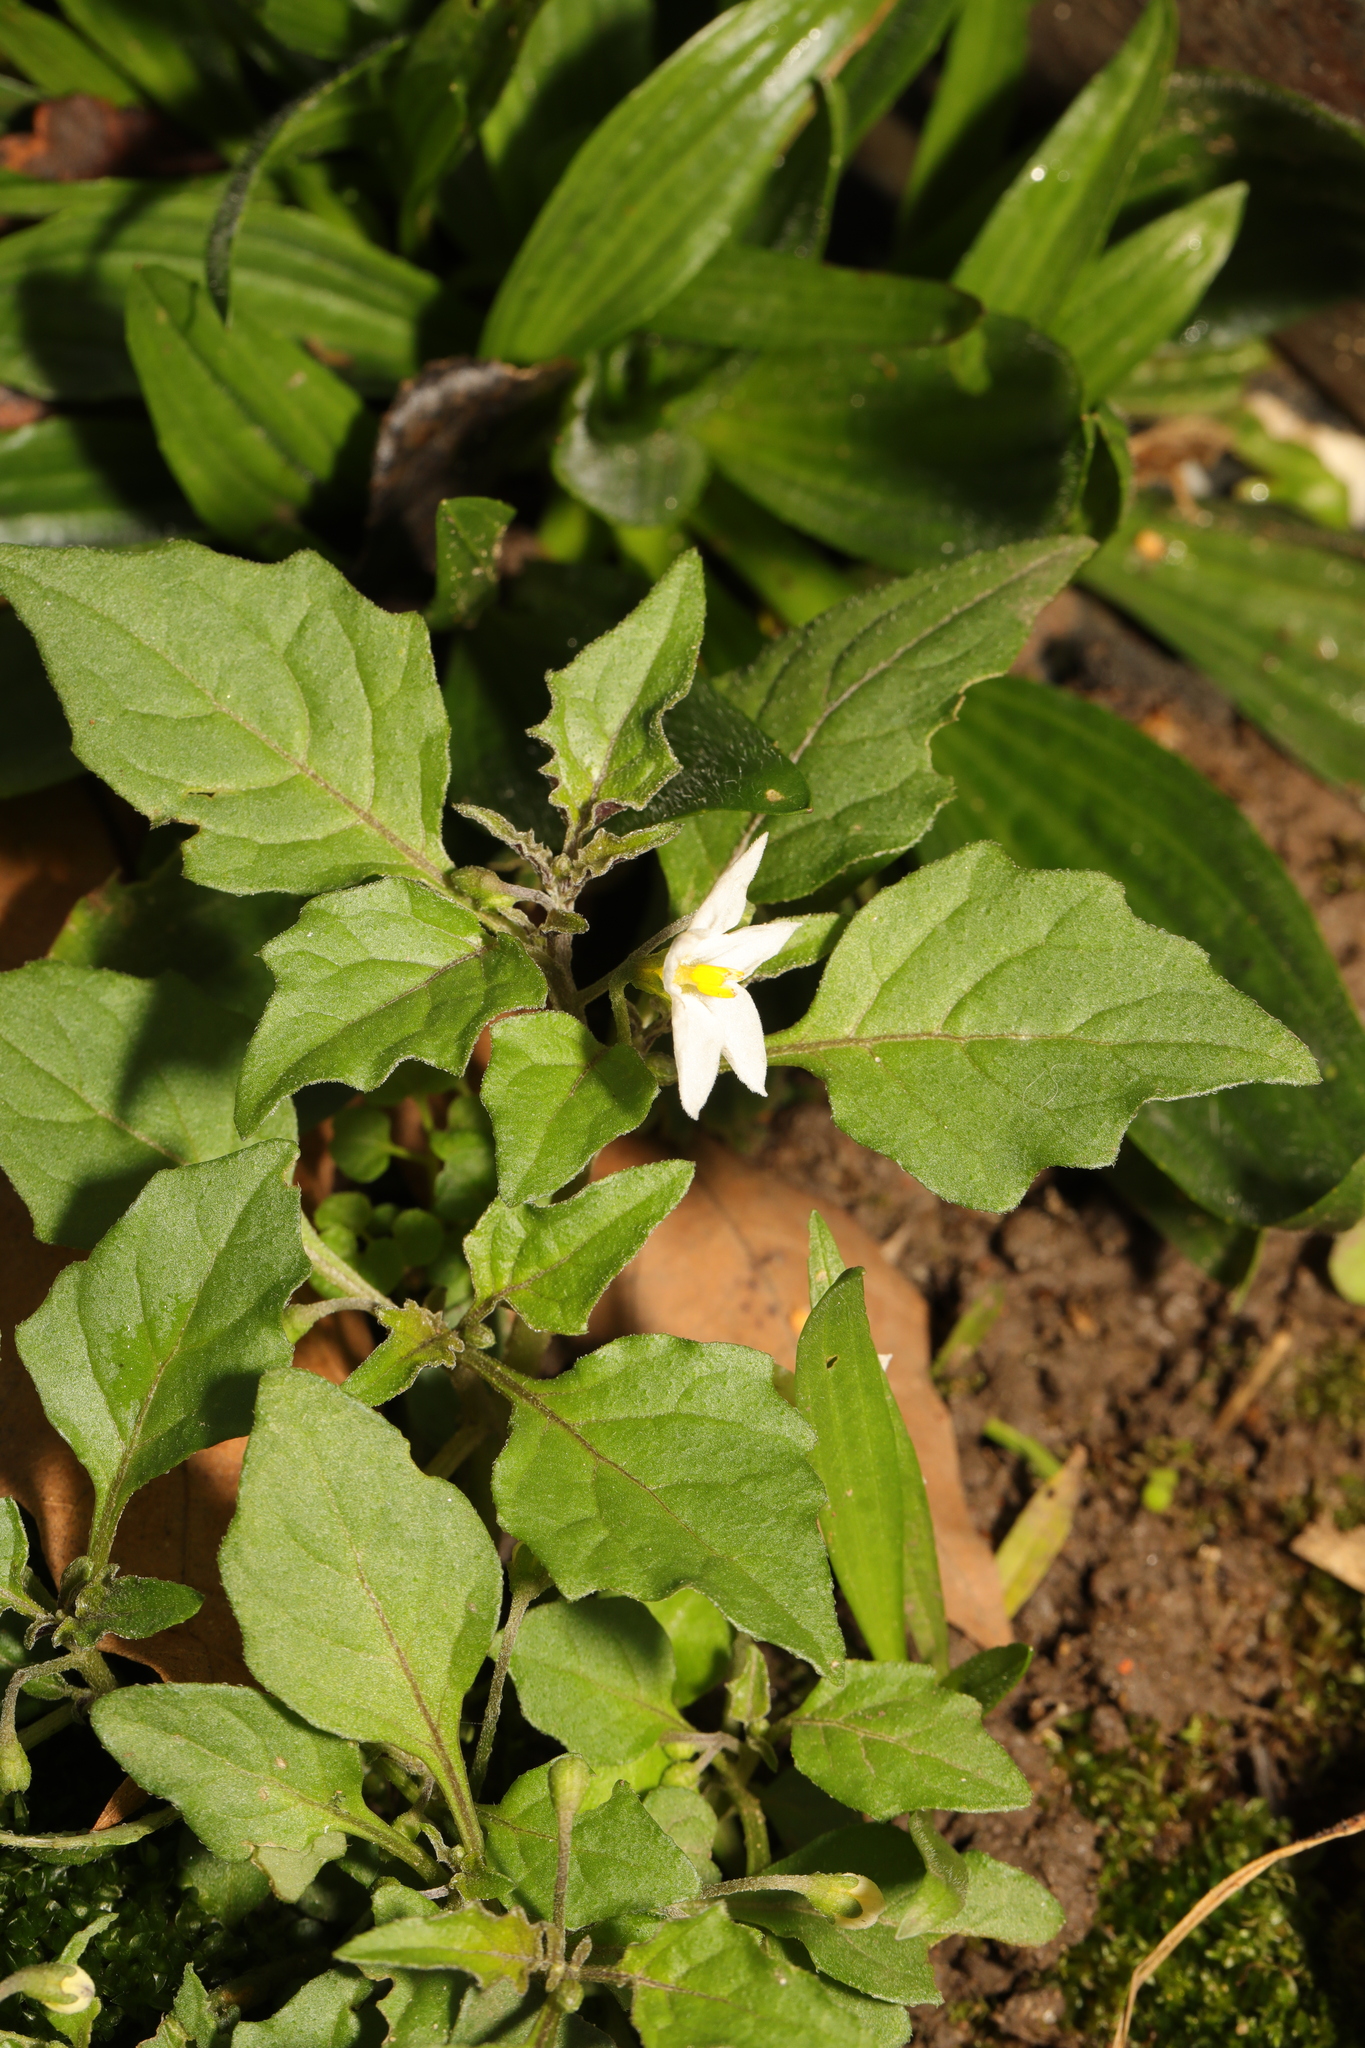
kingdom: Plantae
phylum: Tracheophyta
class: Magnoliopsida
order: Solanales
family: Solanaceae
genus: Solanum
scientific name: Solanum nigrum
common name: Black nightshade
